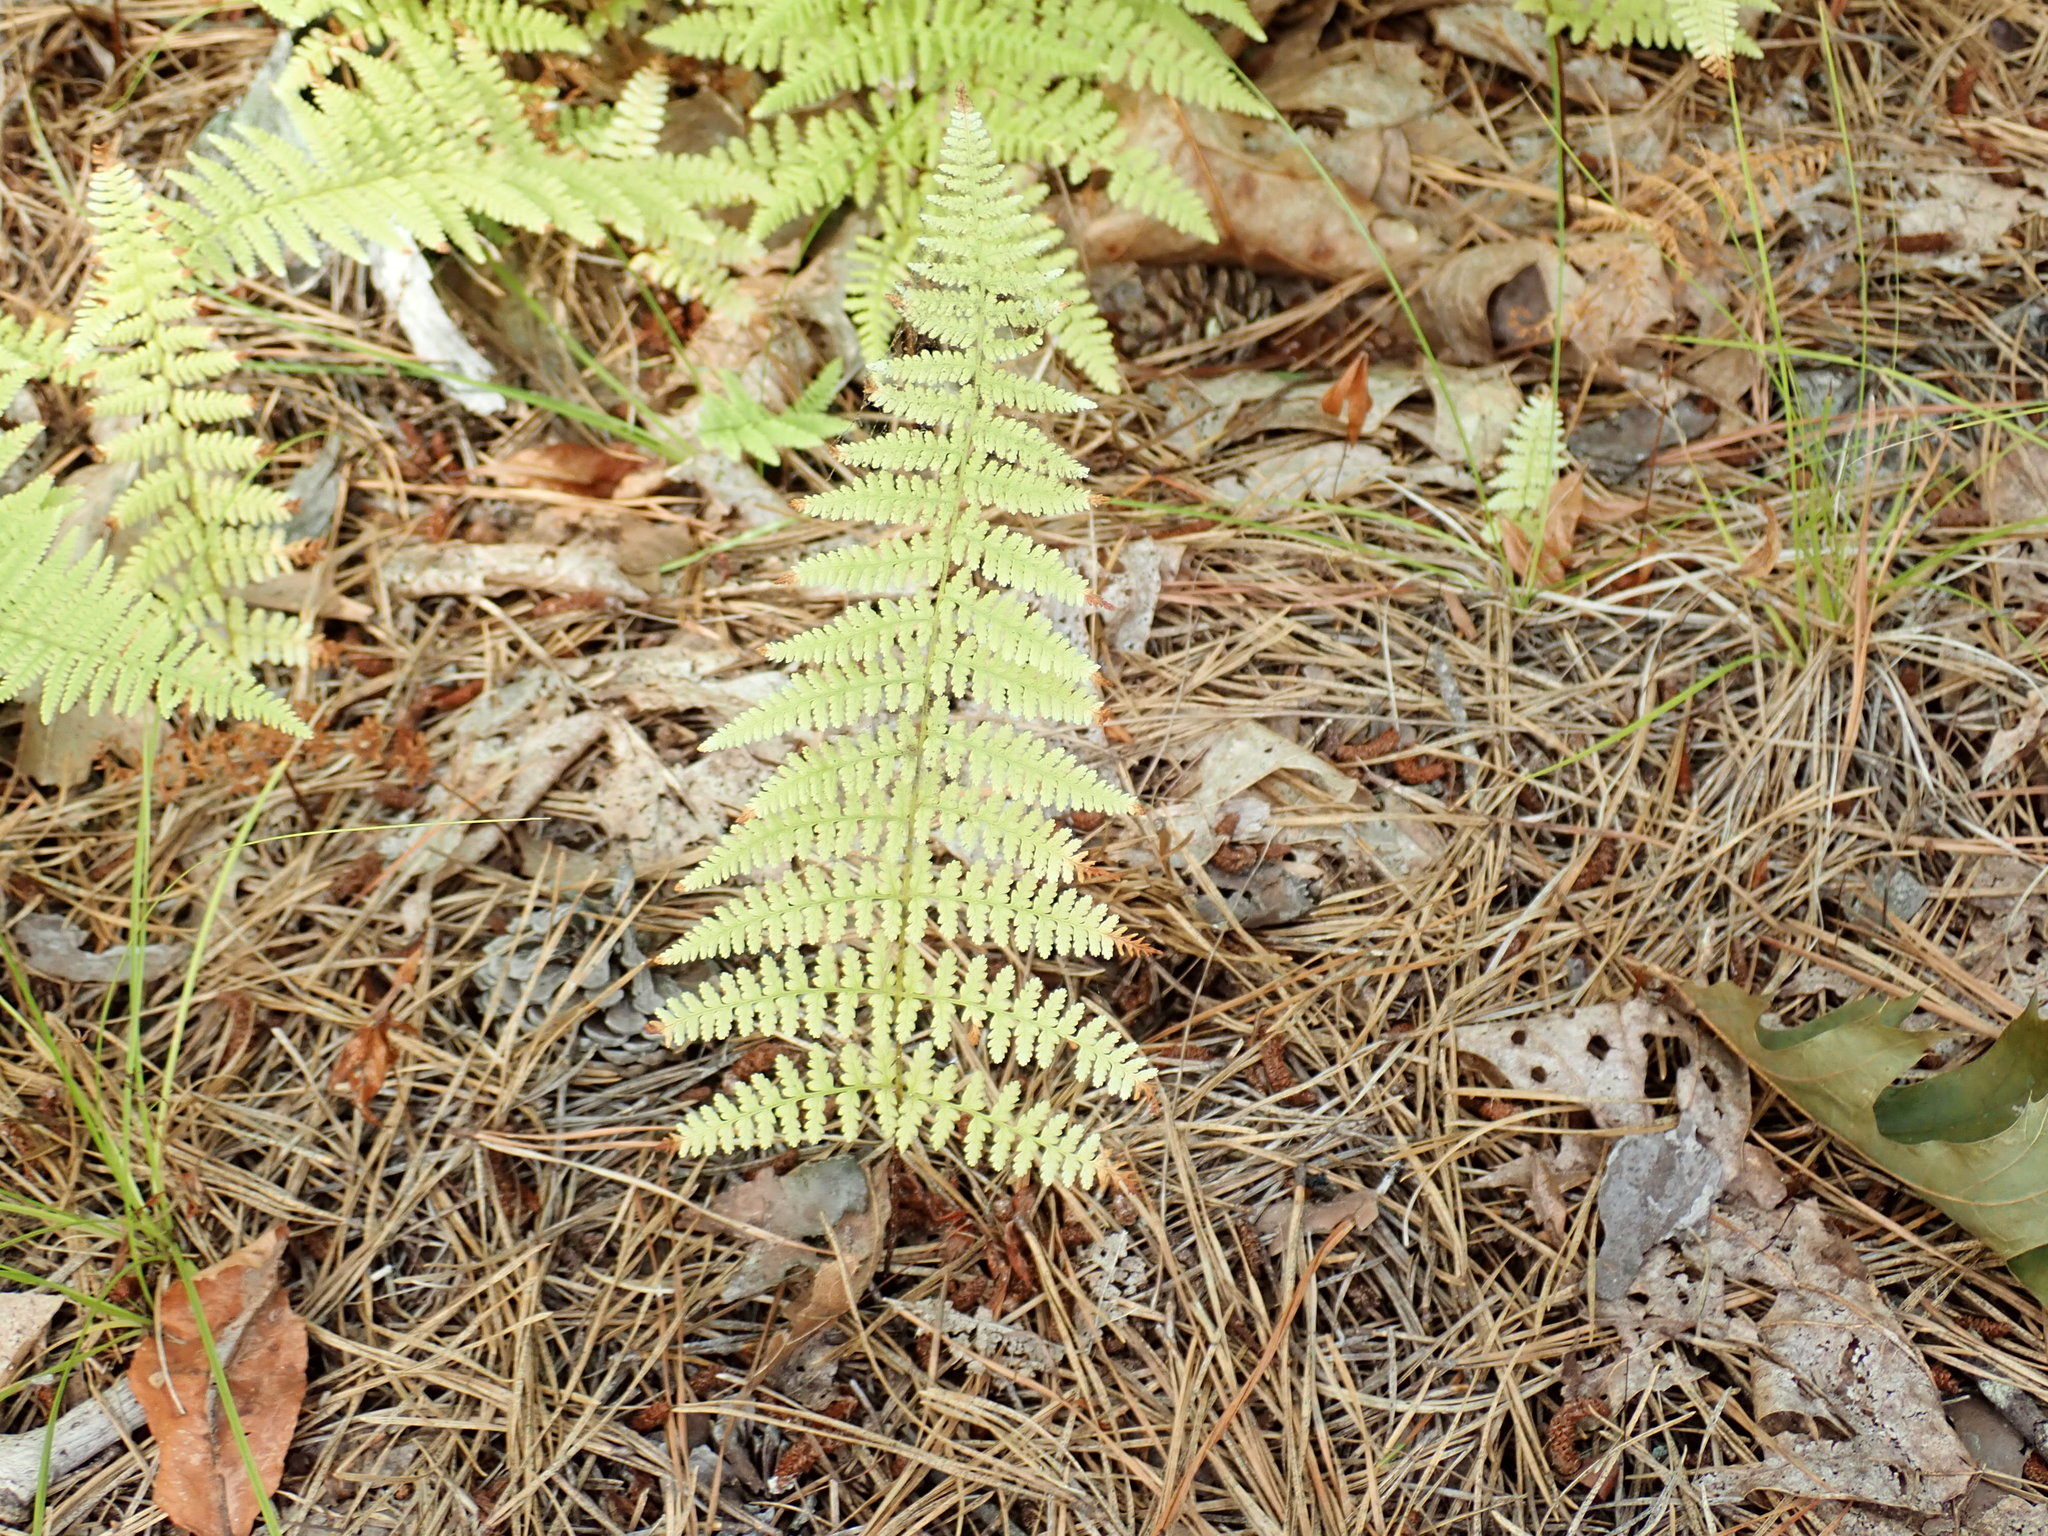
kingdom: Plantae
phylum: Tracheophyta
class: Polypodiopsida
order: Polypodiales
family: Dennstaedtiaceae
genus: Sitobolium
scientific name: Sitobolium punctilobum
